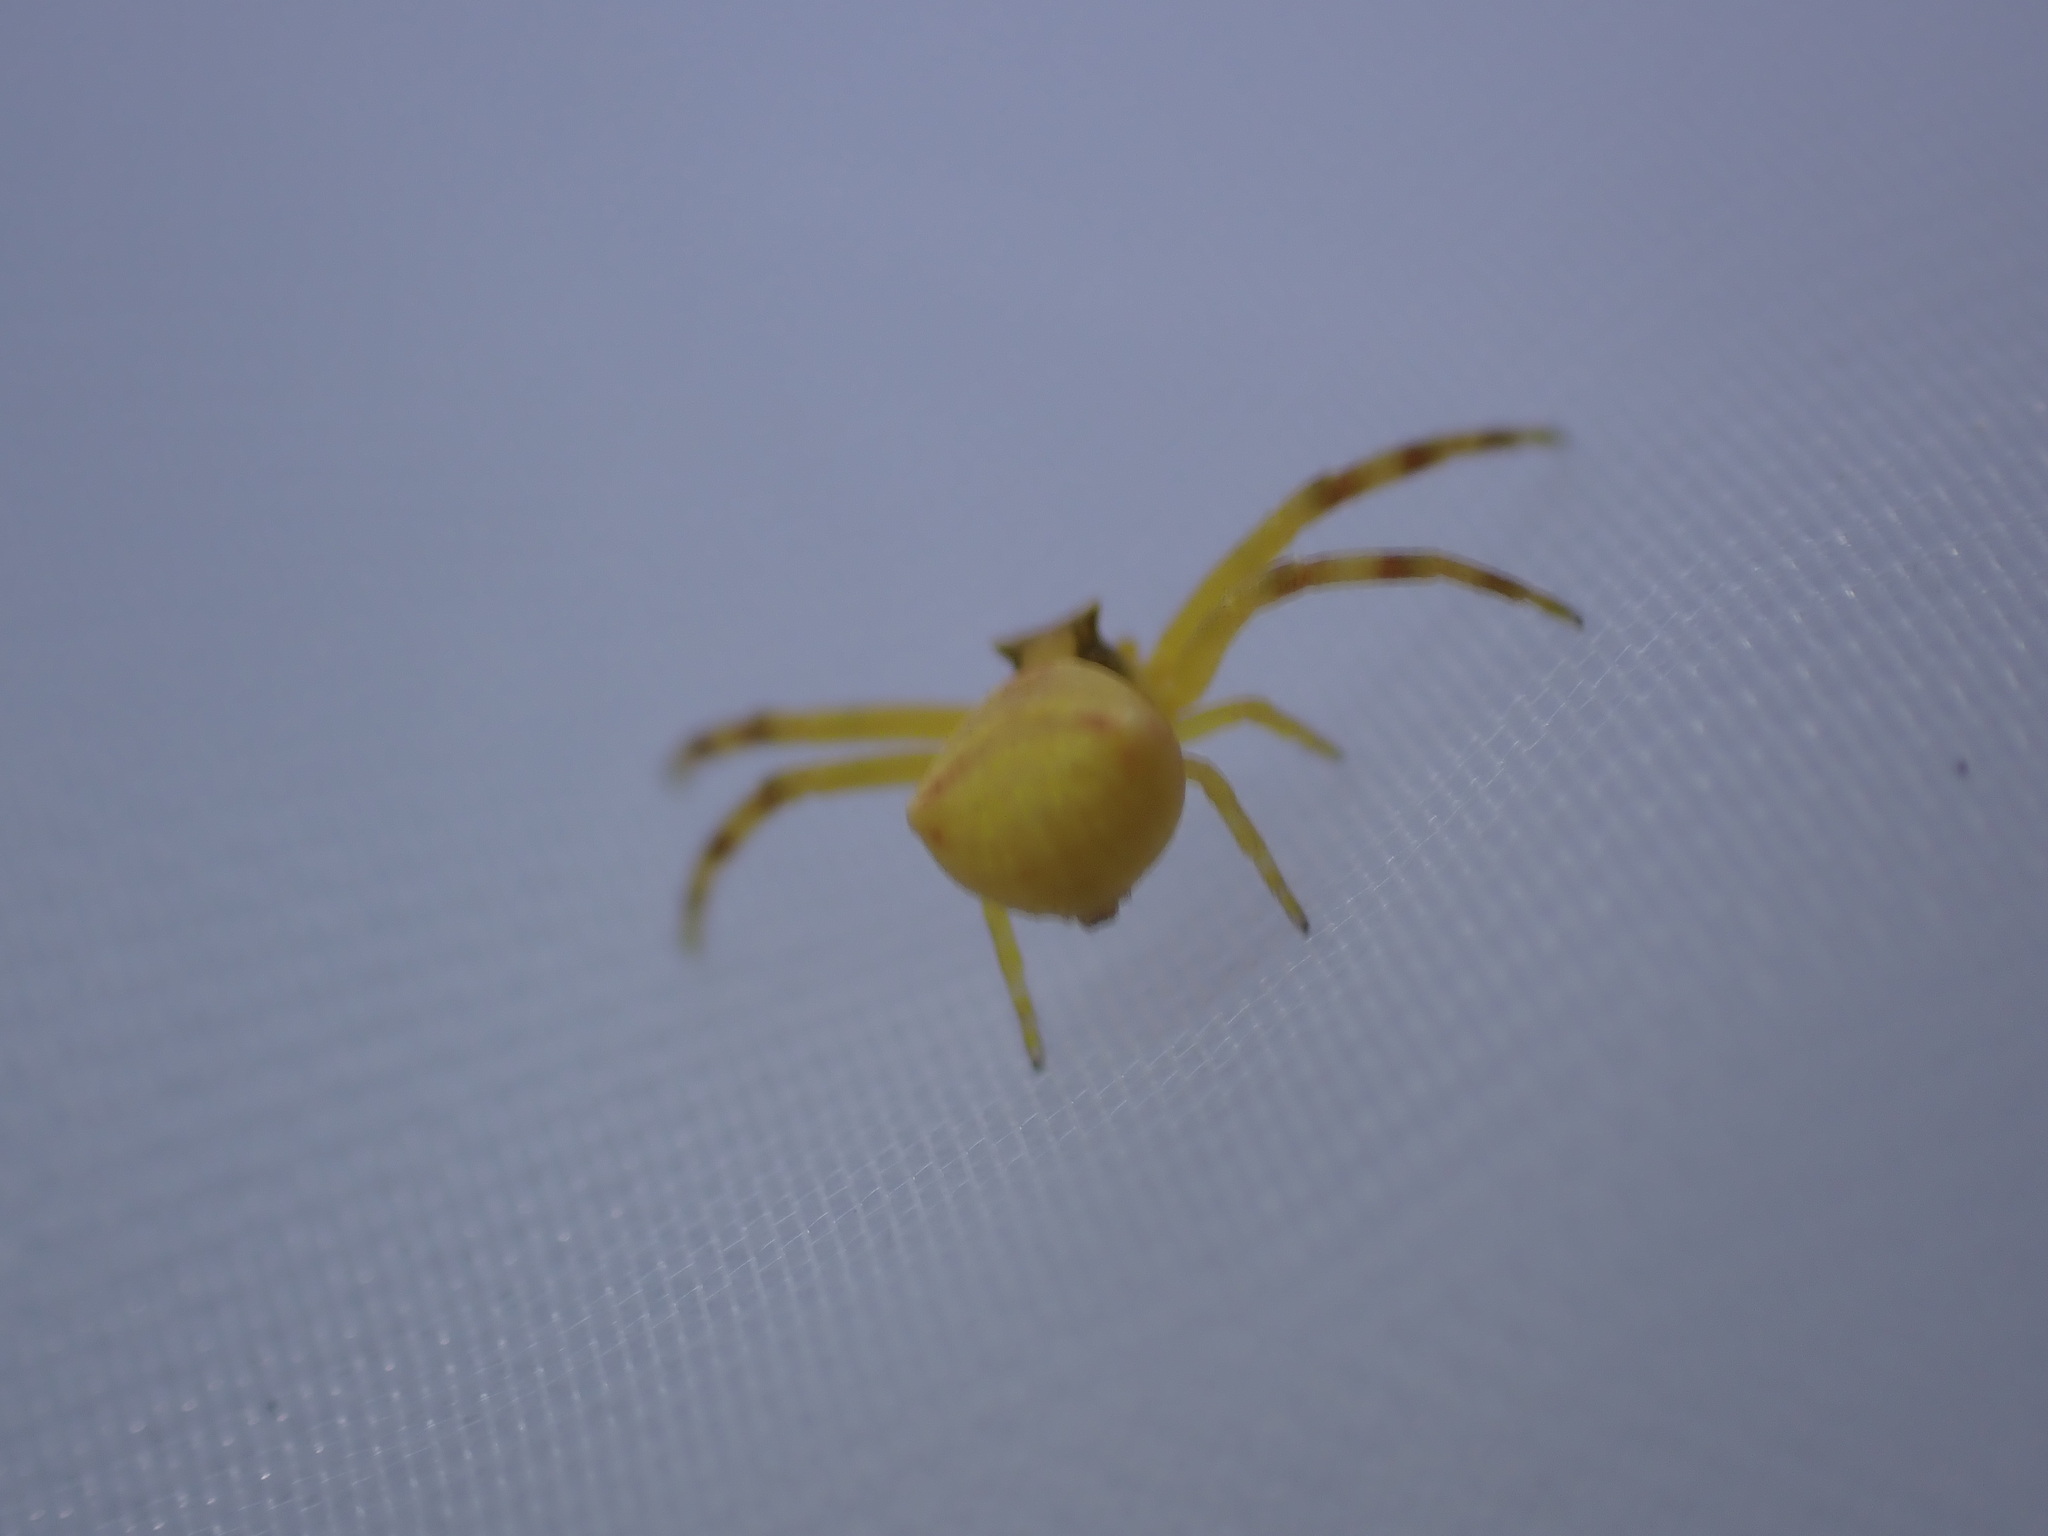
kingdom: Animalia
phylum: Arthropoda
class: Arachnida
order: Araneae
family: Thomisidae
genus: Thomisus
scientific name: Thomisus onustus
